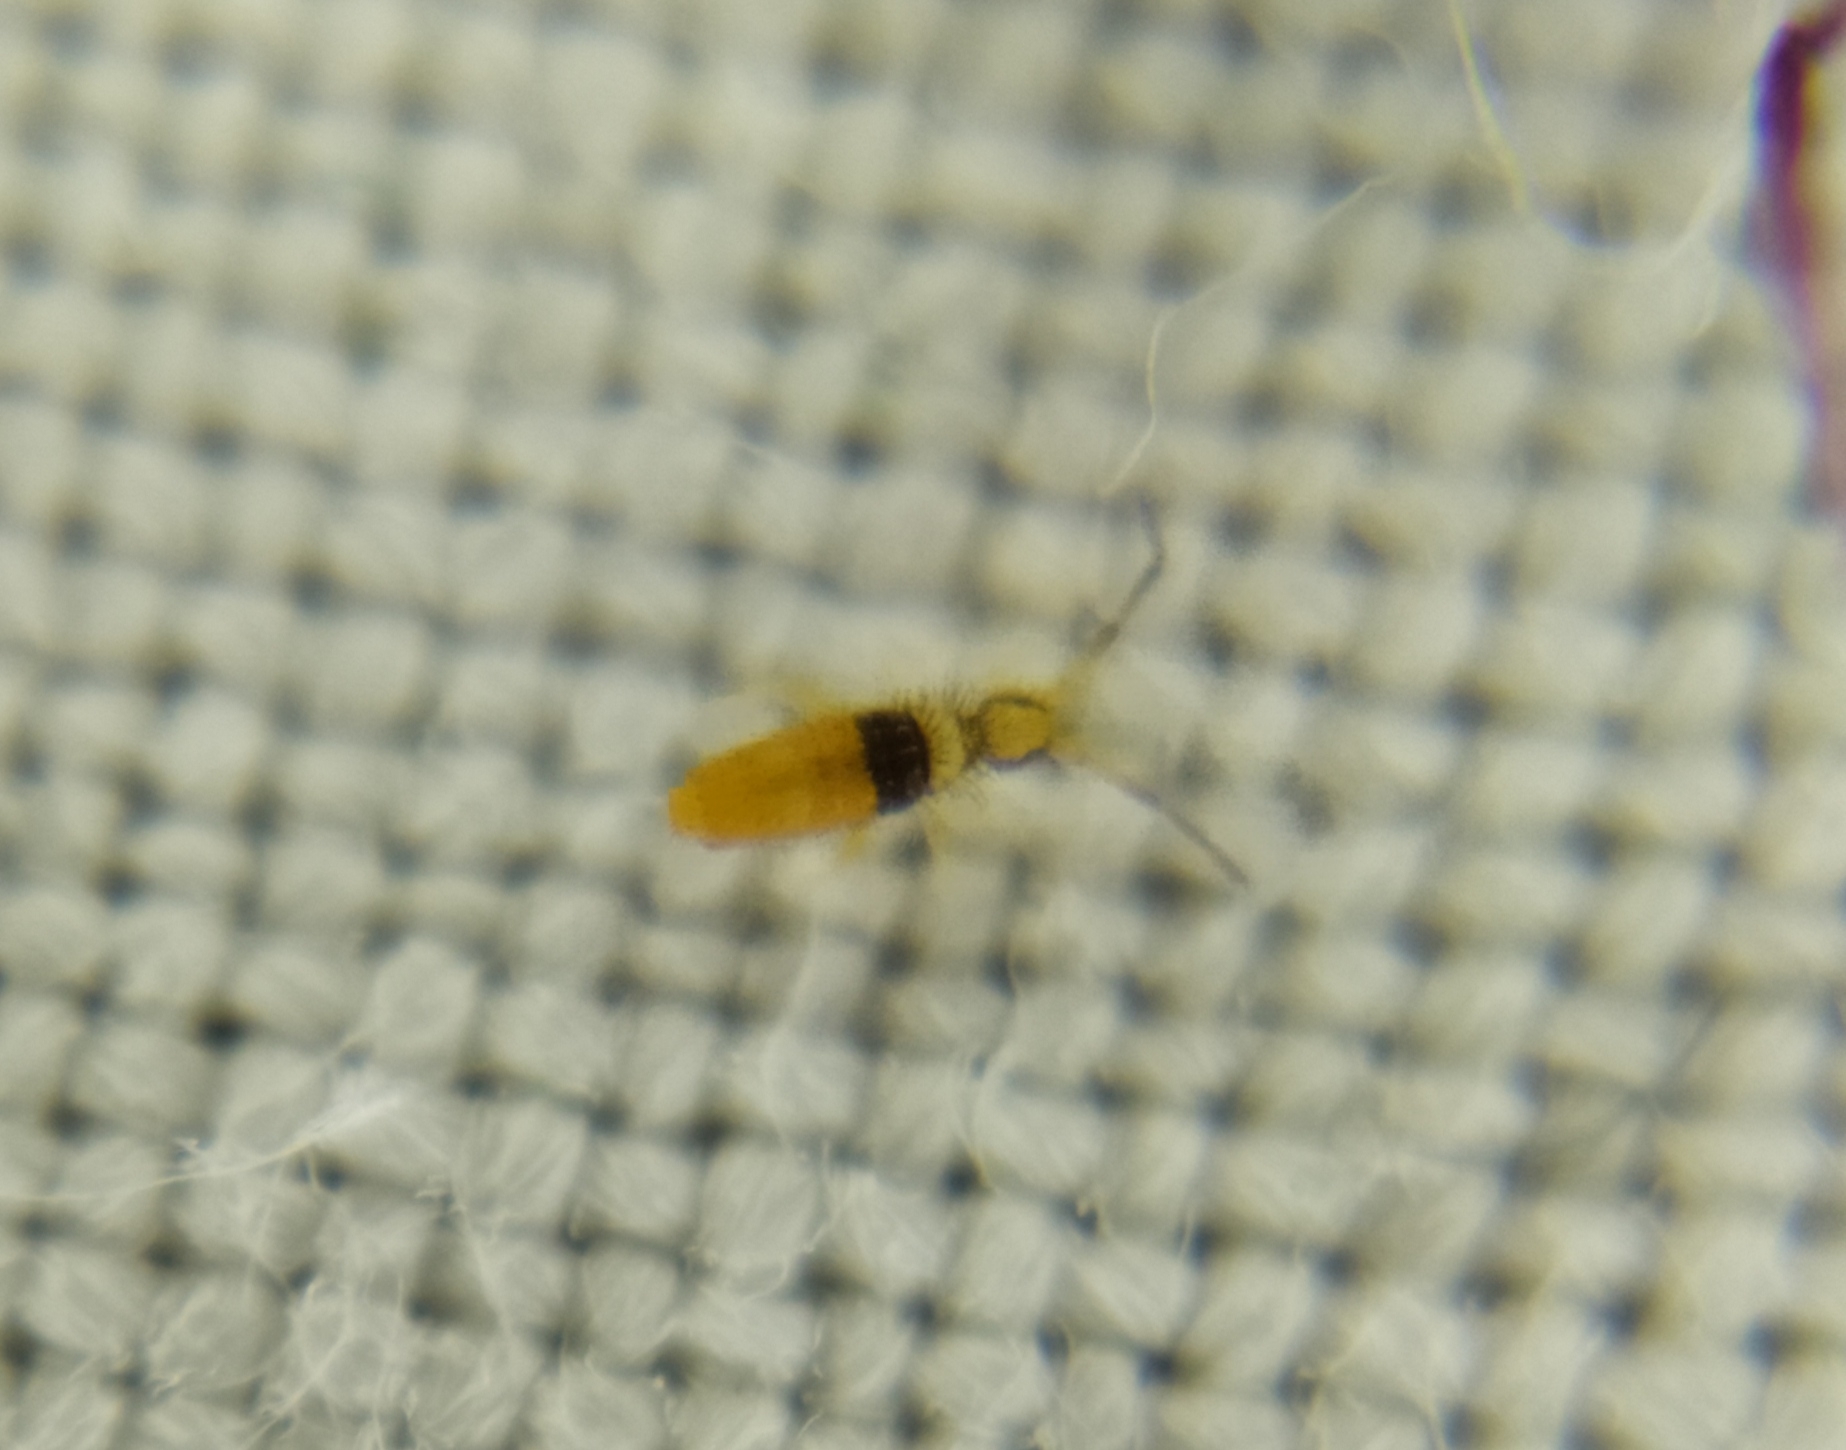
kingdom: Animalia
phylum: Arthropoda
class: Collembola
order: Entomobryomorpha
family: Entomobryidae
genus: Entomobrya
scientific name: Entomobrya nigrocincta
